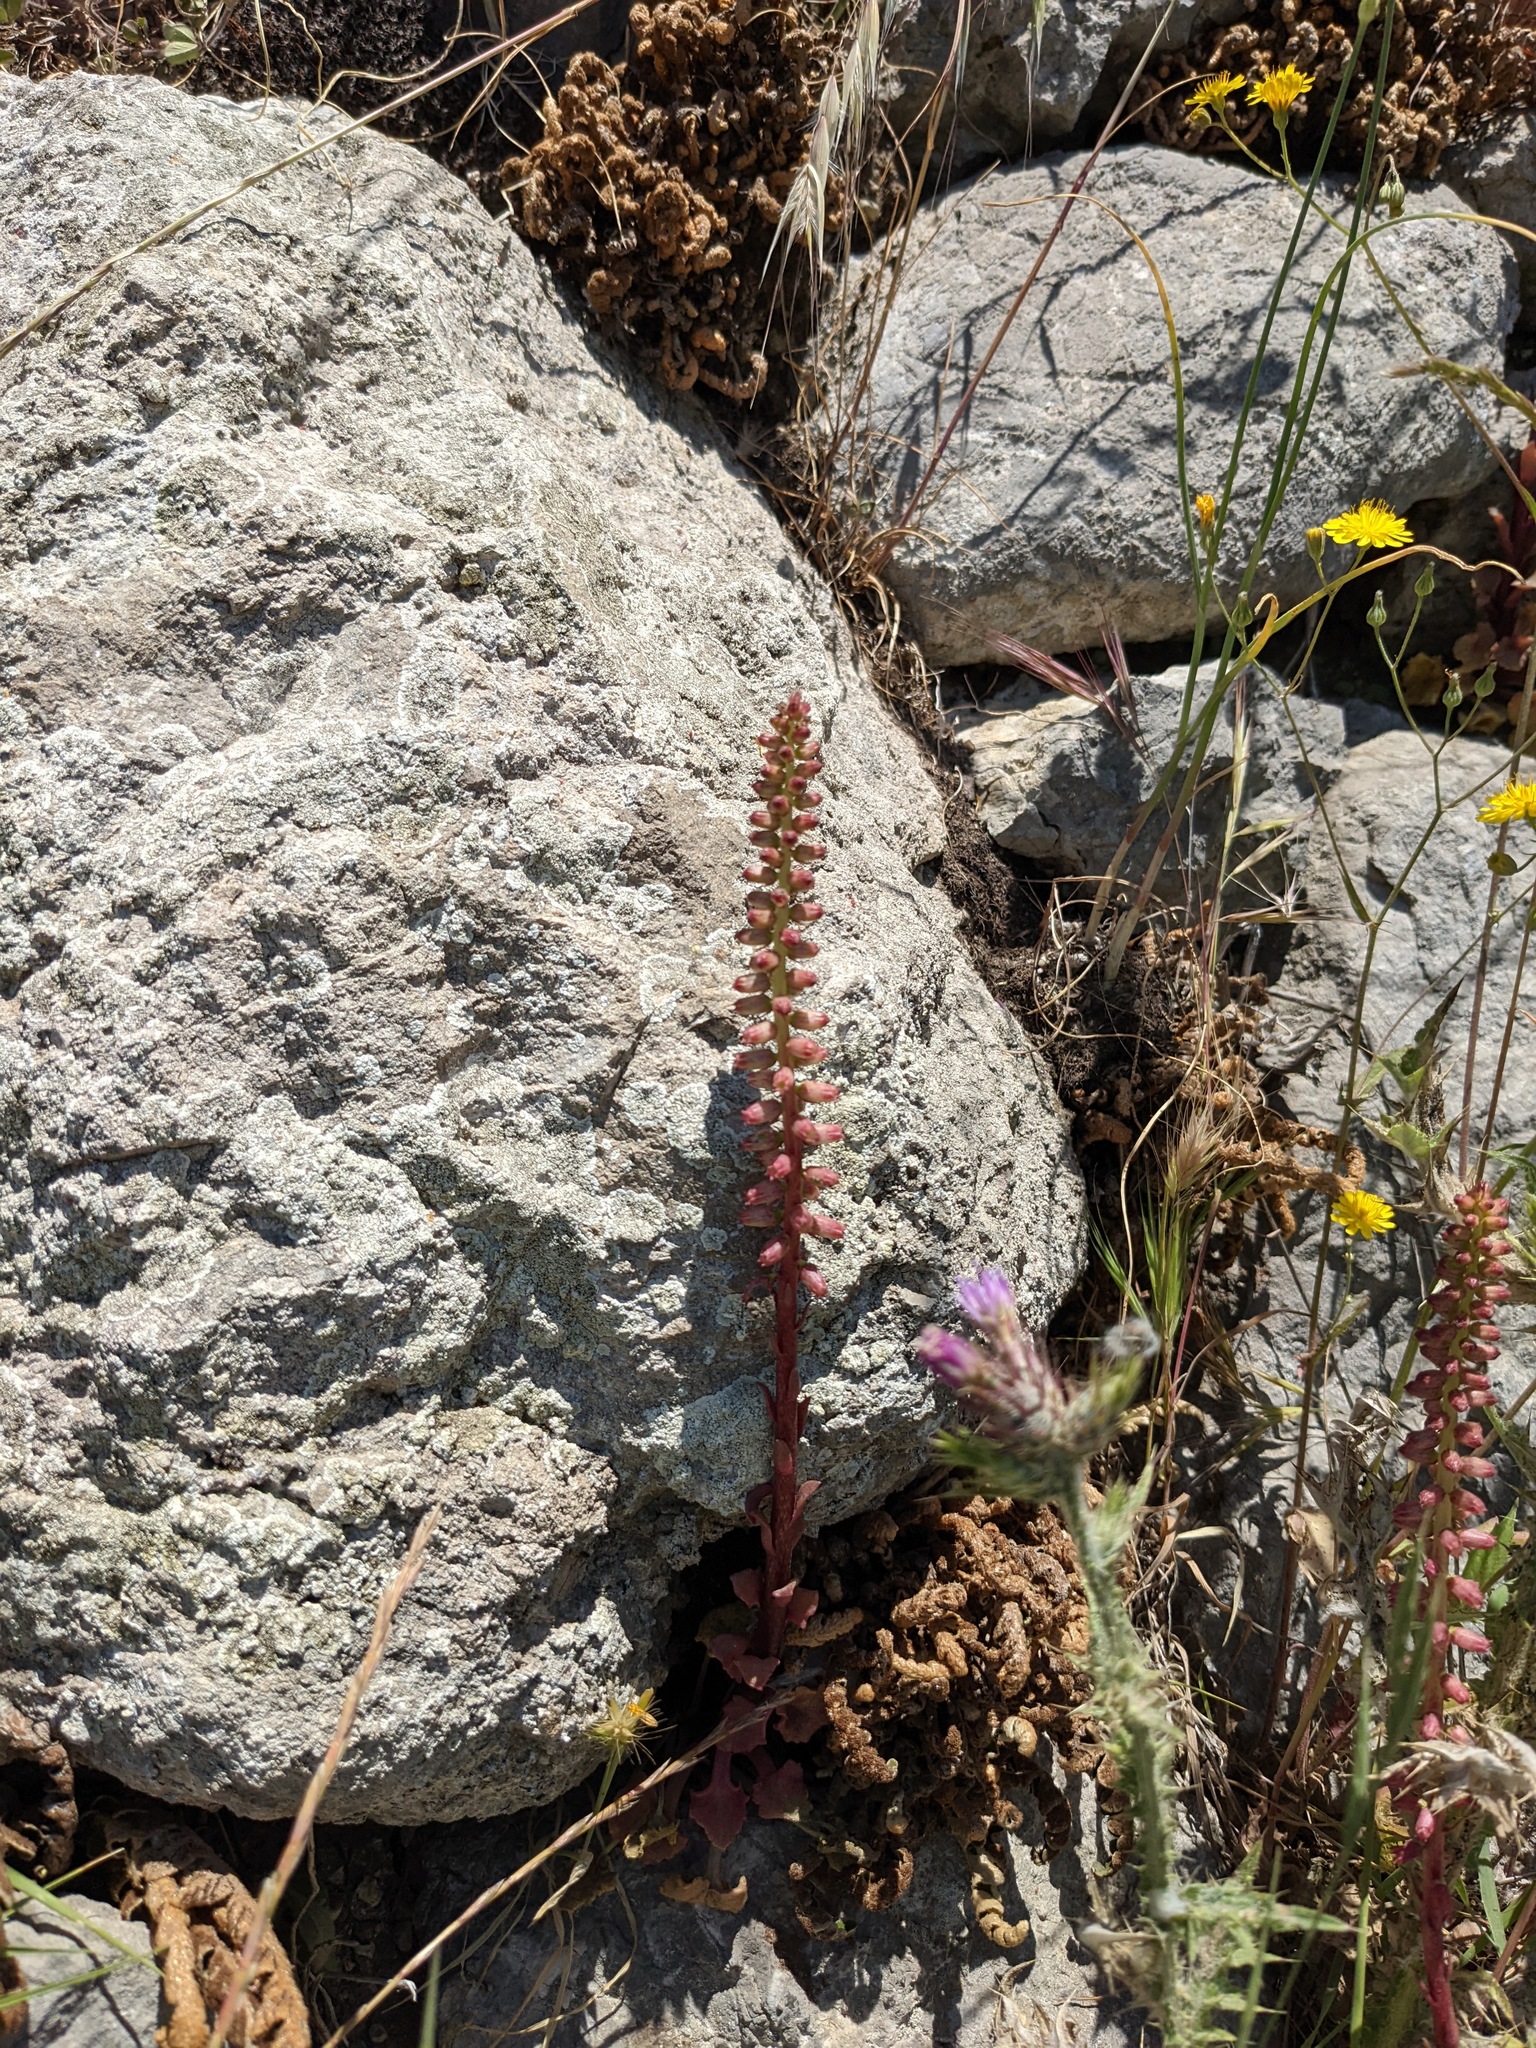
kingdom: Plantae
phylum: Tracheophyta
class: Magnoliopsida
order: Saxifragales
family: Crassulaceae
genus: Umbilicus
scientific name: Umbilicus rupestris
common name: Navelwort
